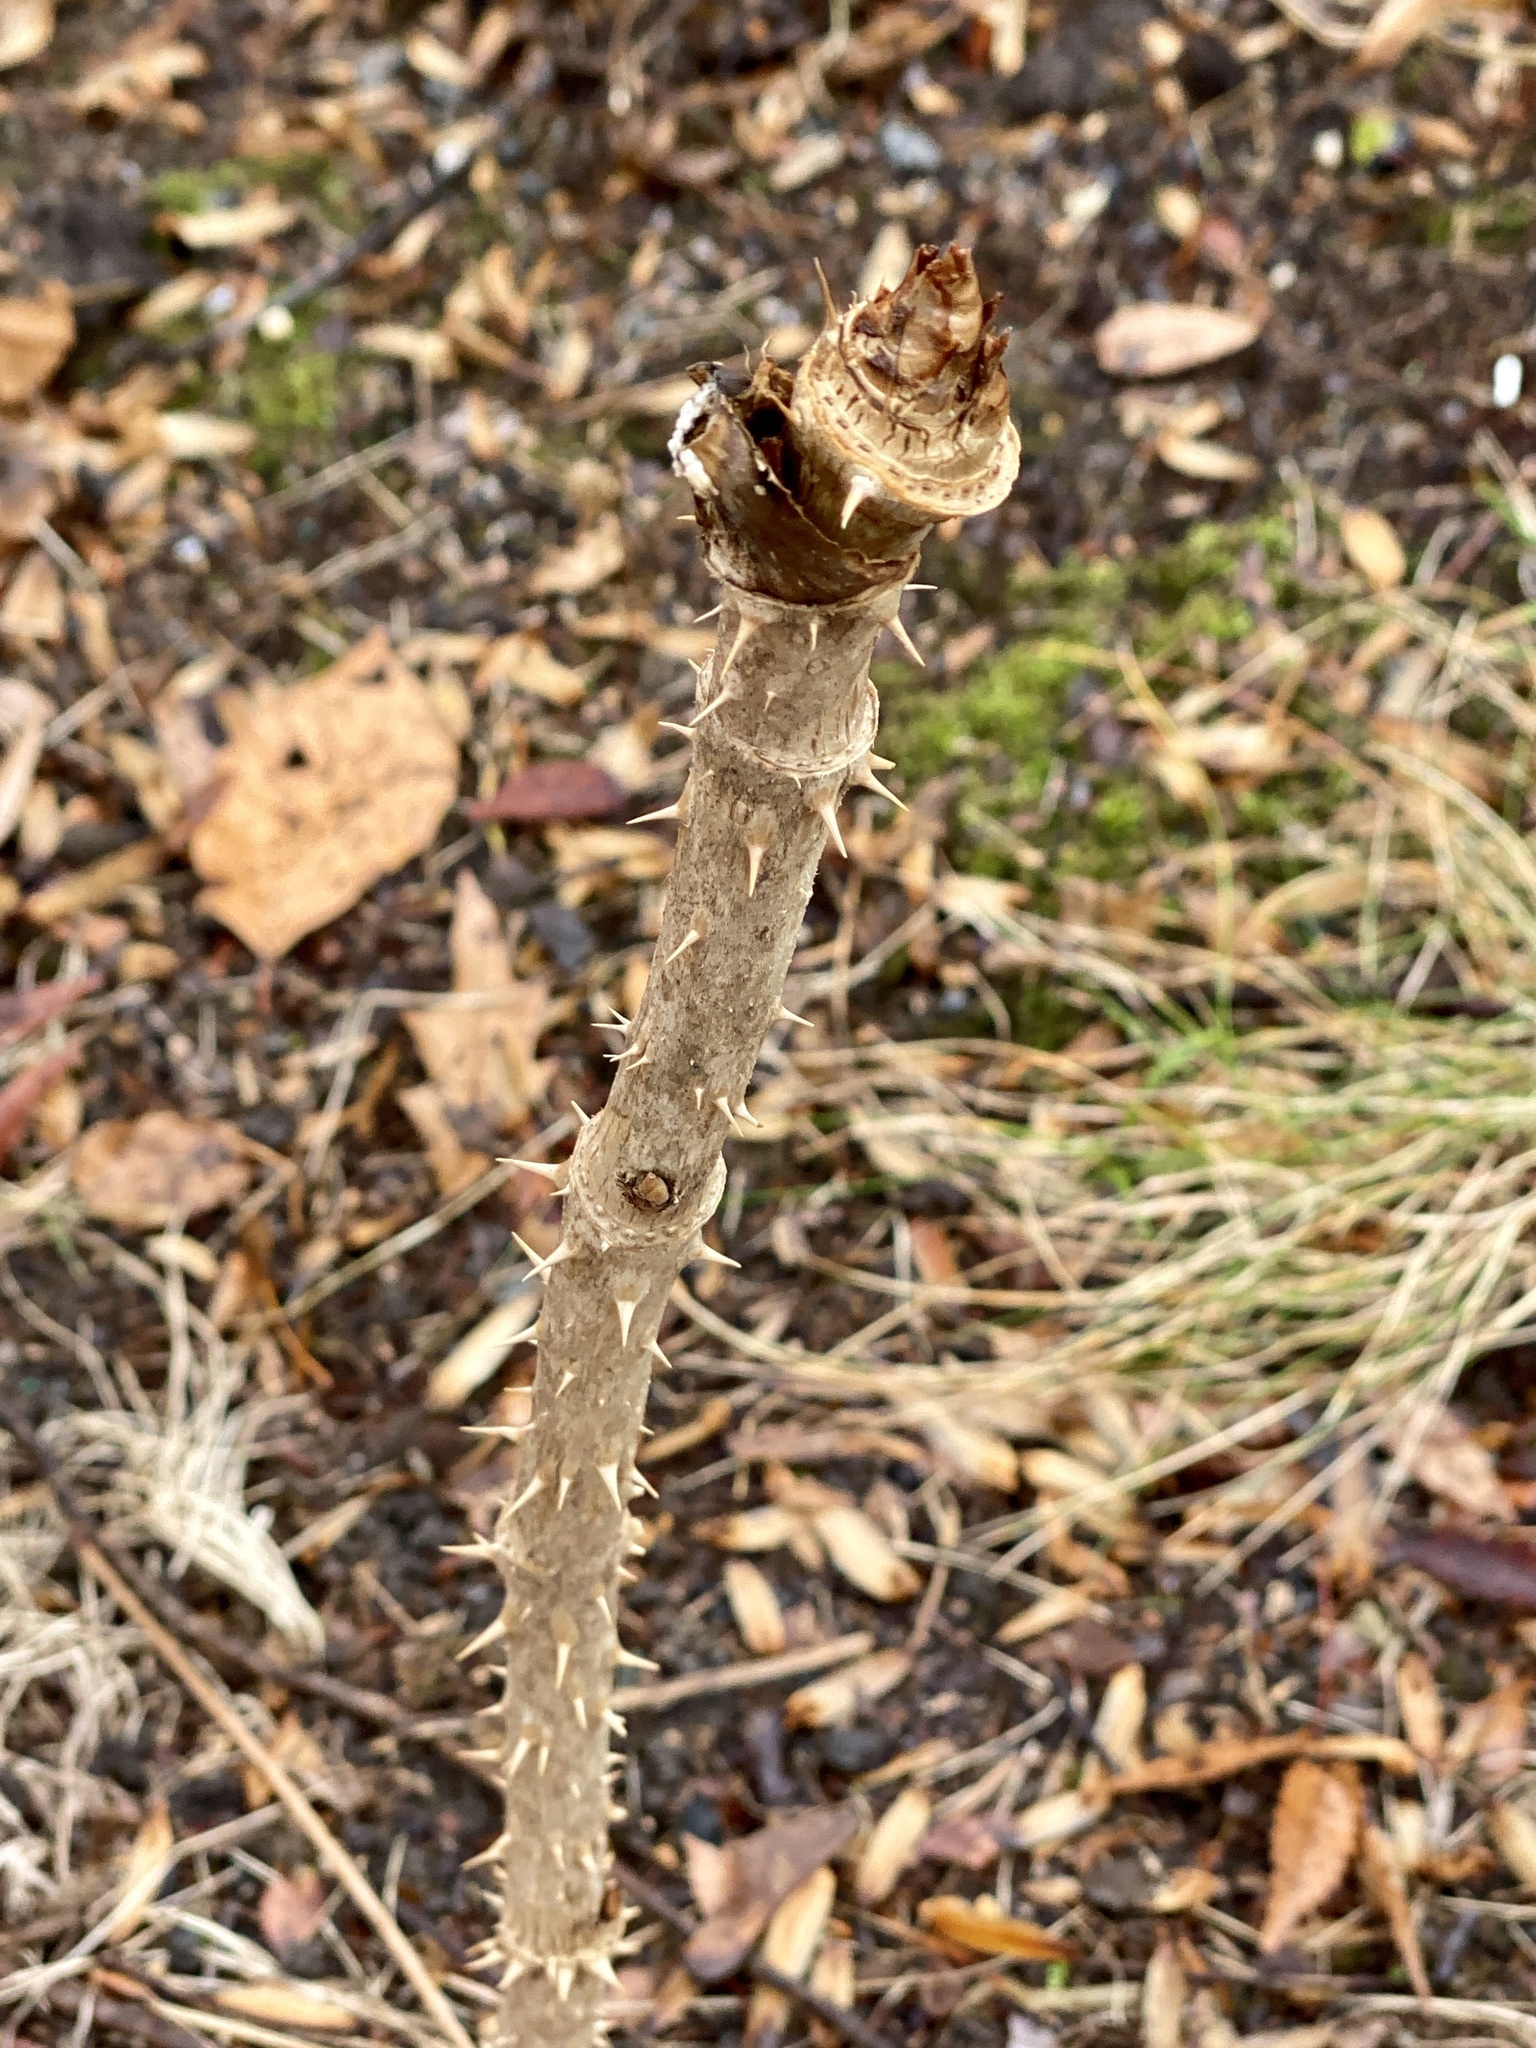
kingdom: Plantae
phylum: Tracheophyta
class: Magnoliopsida
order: Apiales
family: Araliaceae
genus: Aralia
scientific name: Aralia elata
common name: Japanese angelica-tree
